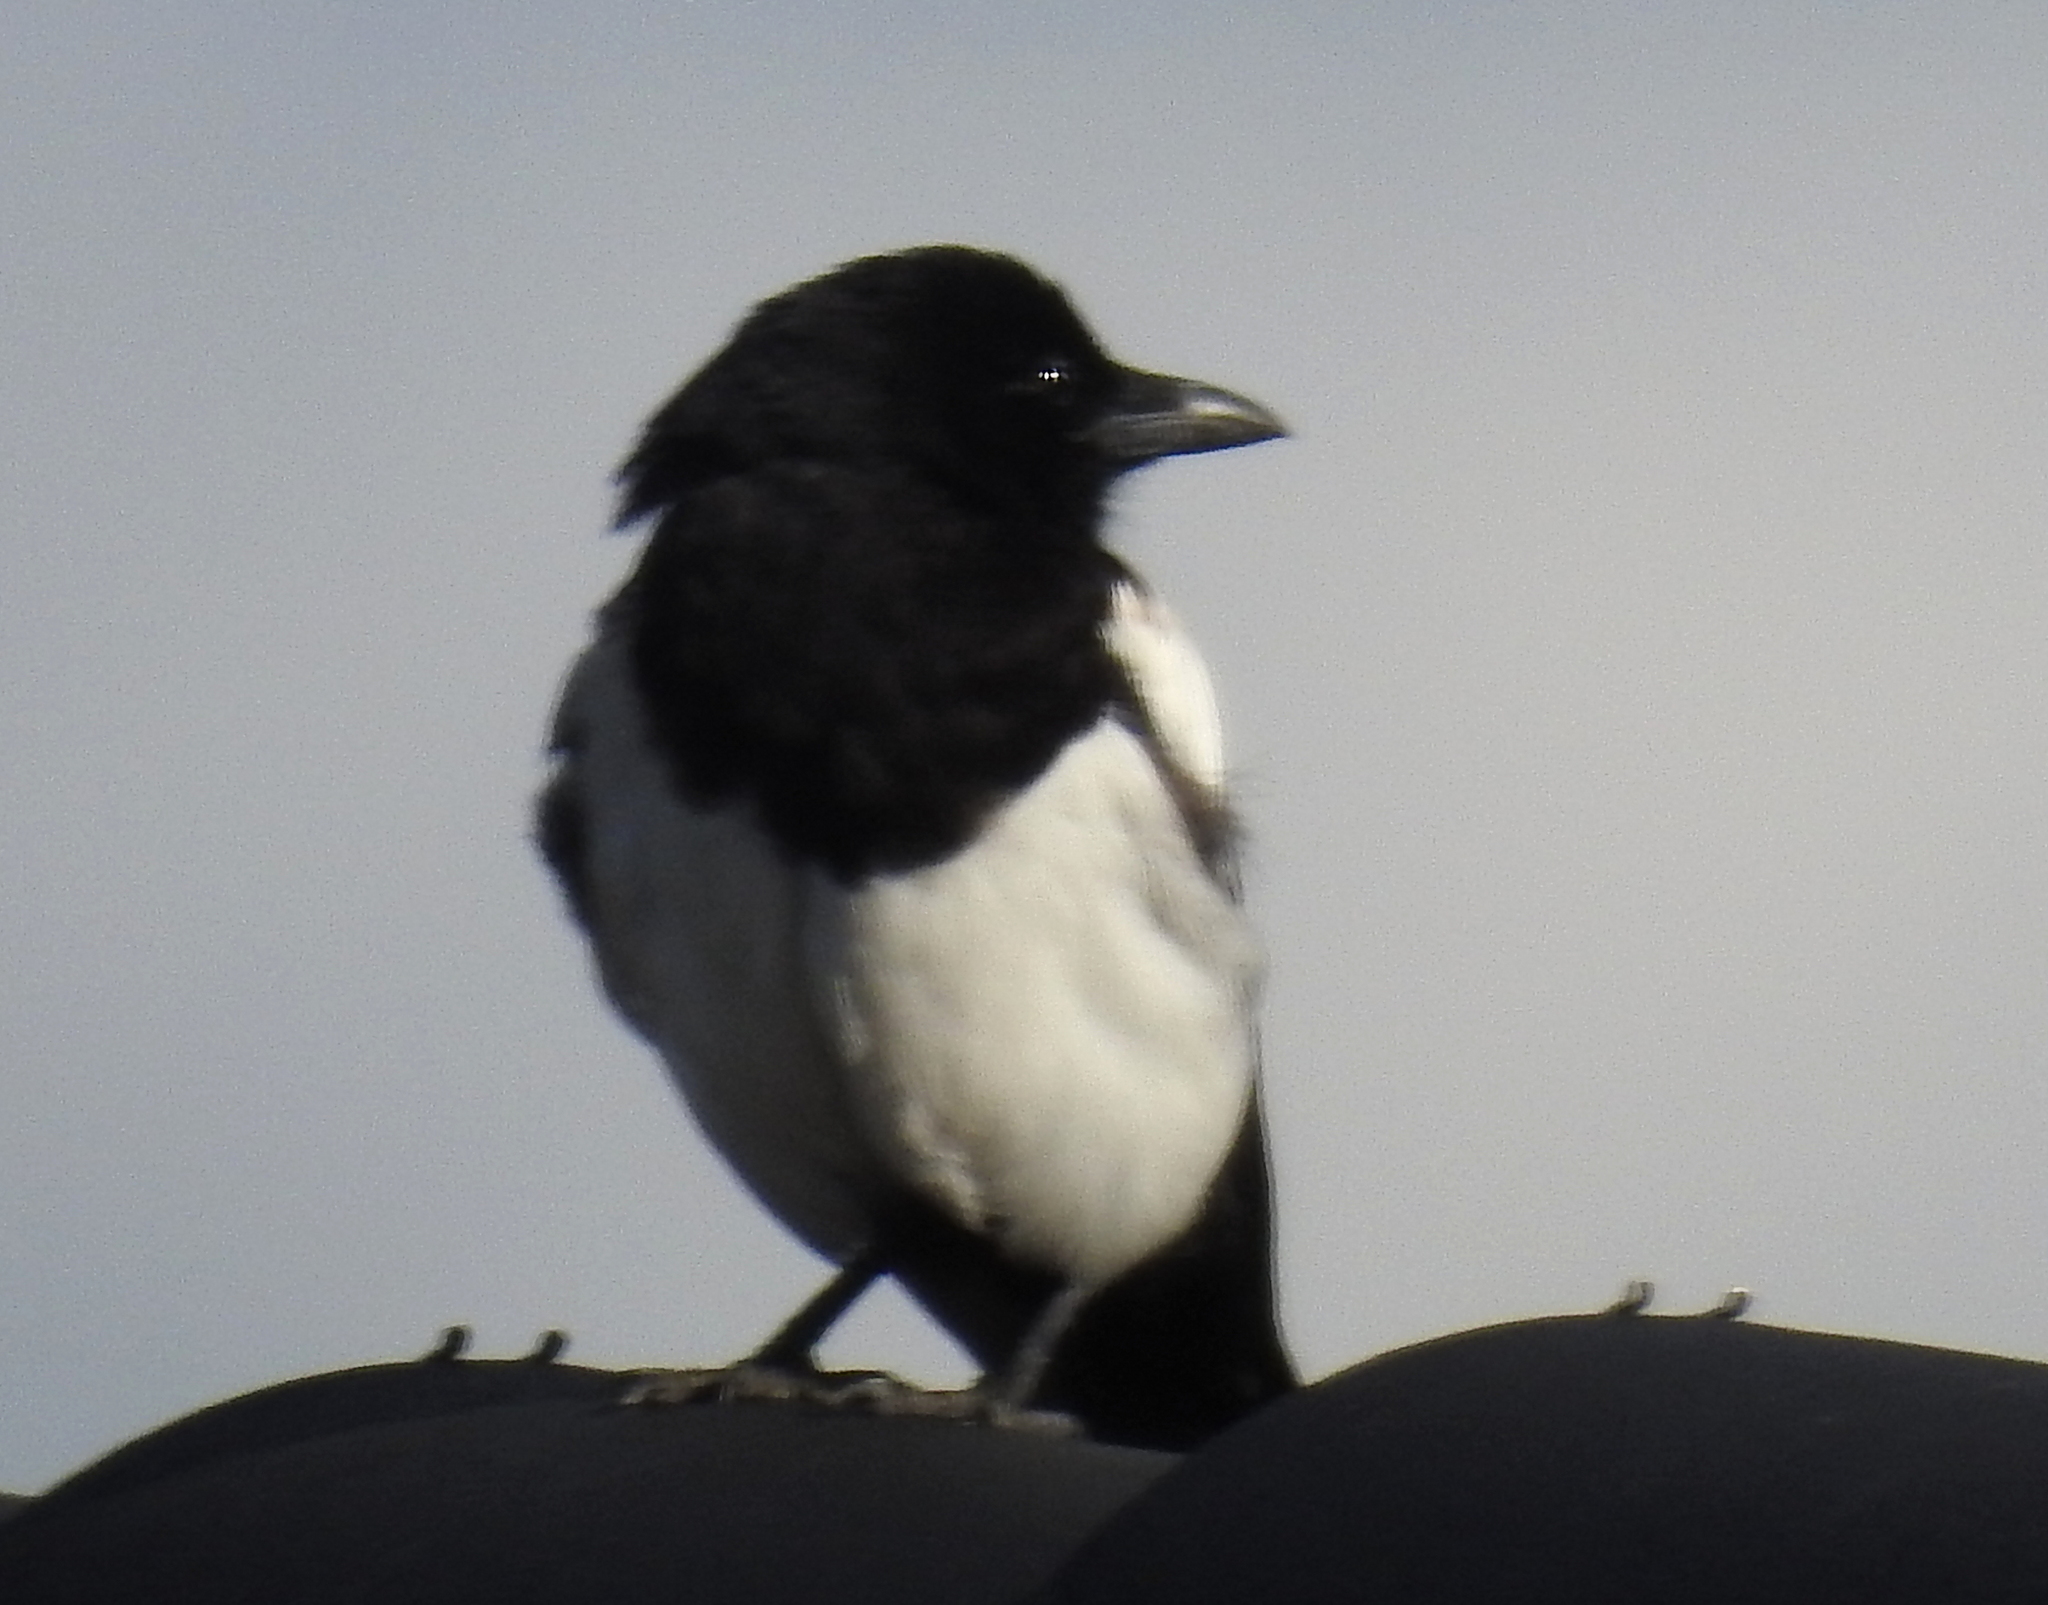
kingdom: Animalia
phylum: Chordata
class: Aves
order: Passeriformes
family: Corvidae
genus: Pica
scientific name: Pica pica
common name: Eurasian magpie
